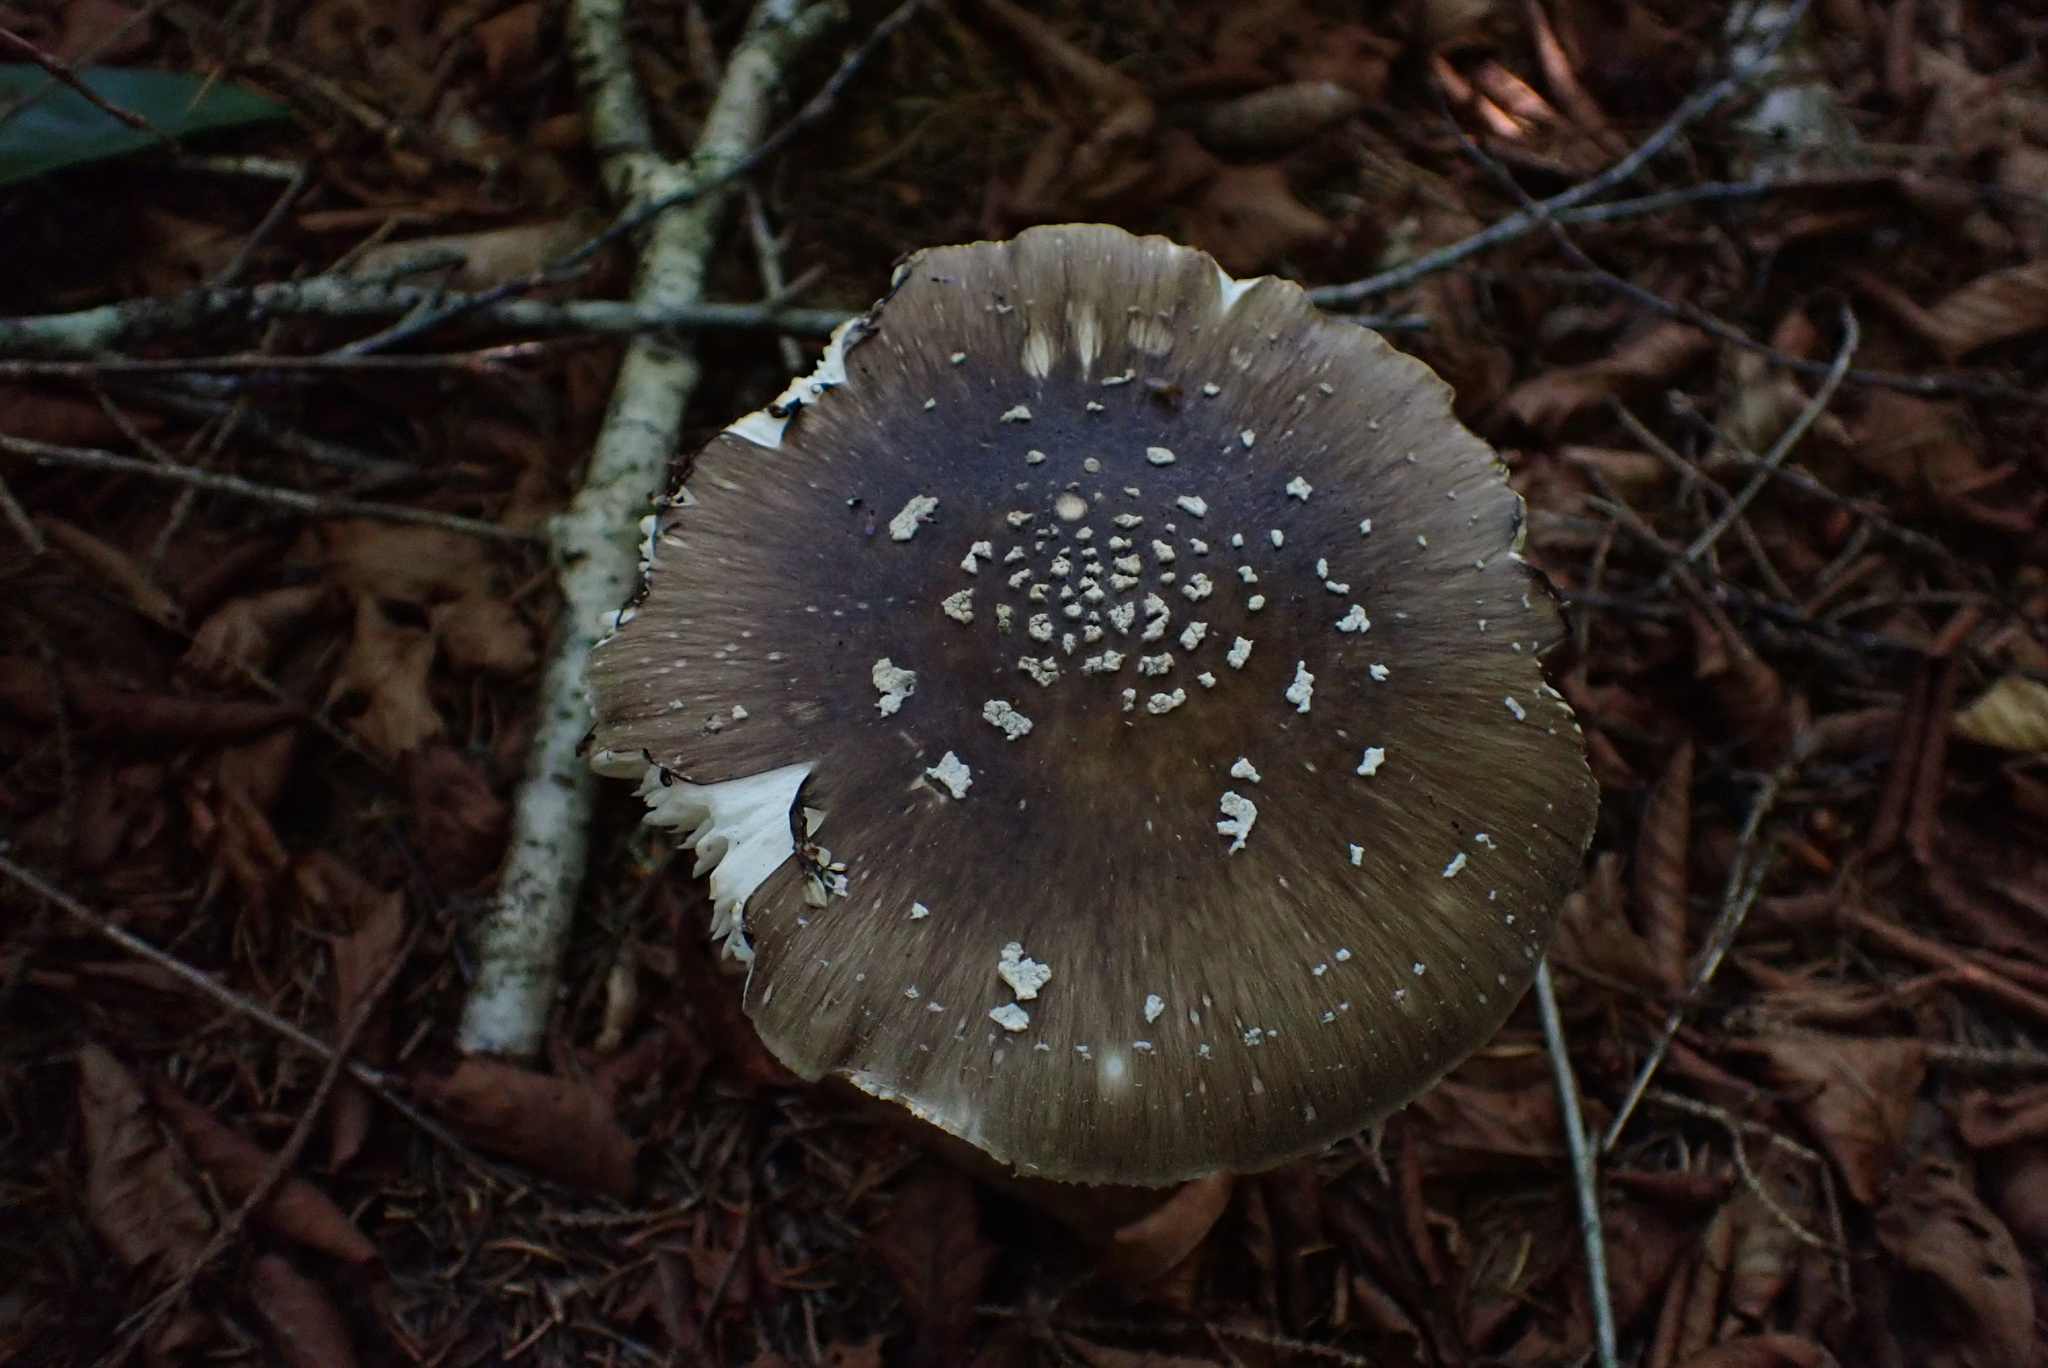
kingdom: Fungi
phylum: Basidiomycota
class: Agaricomycetes
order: Agaricales
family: Amanitaceae
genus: Amanita
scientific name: Amanita brunnescens
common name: Brown american star-footed amanita
